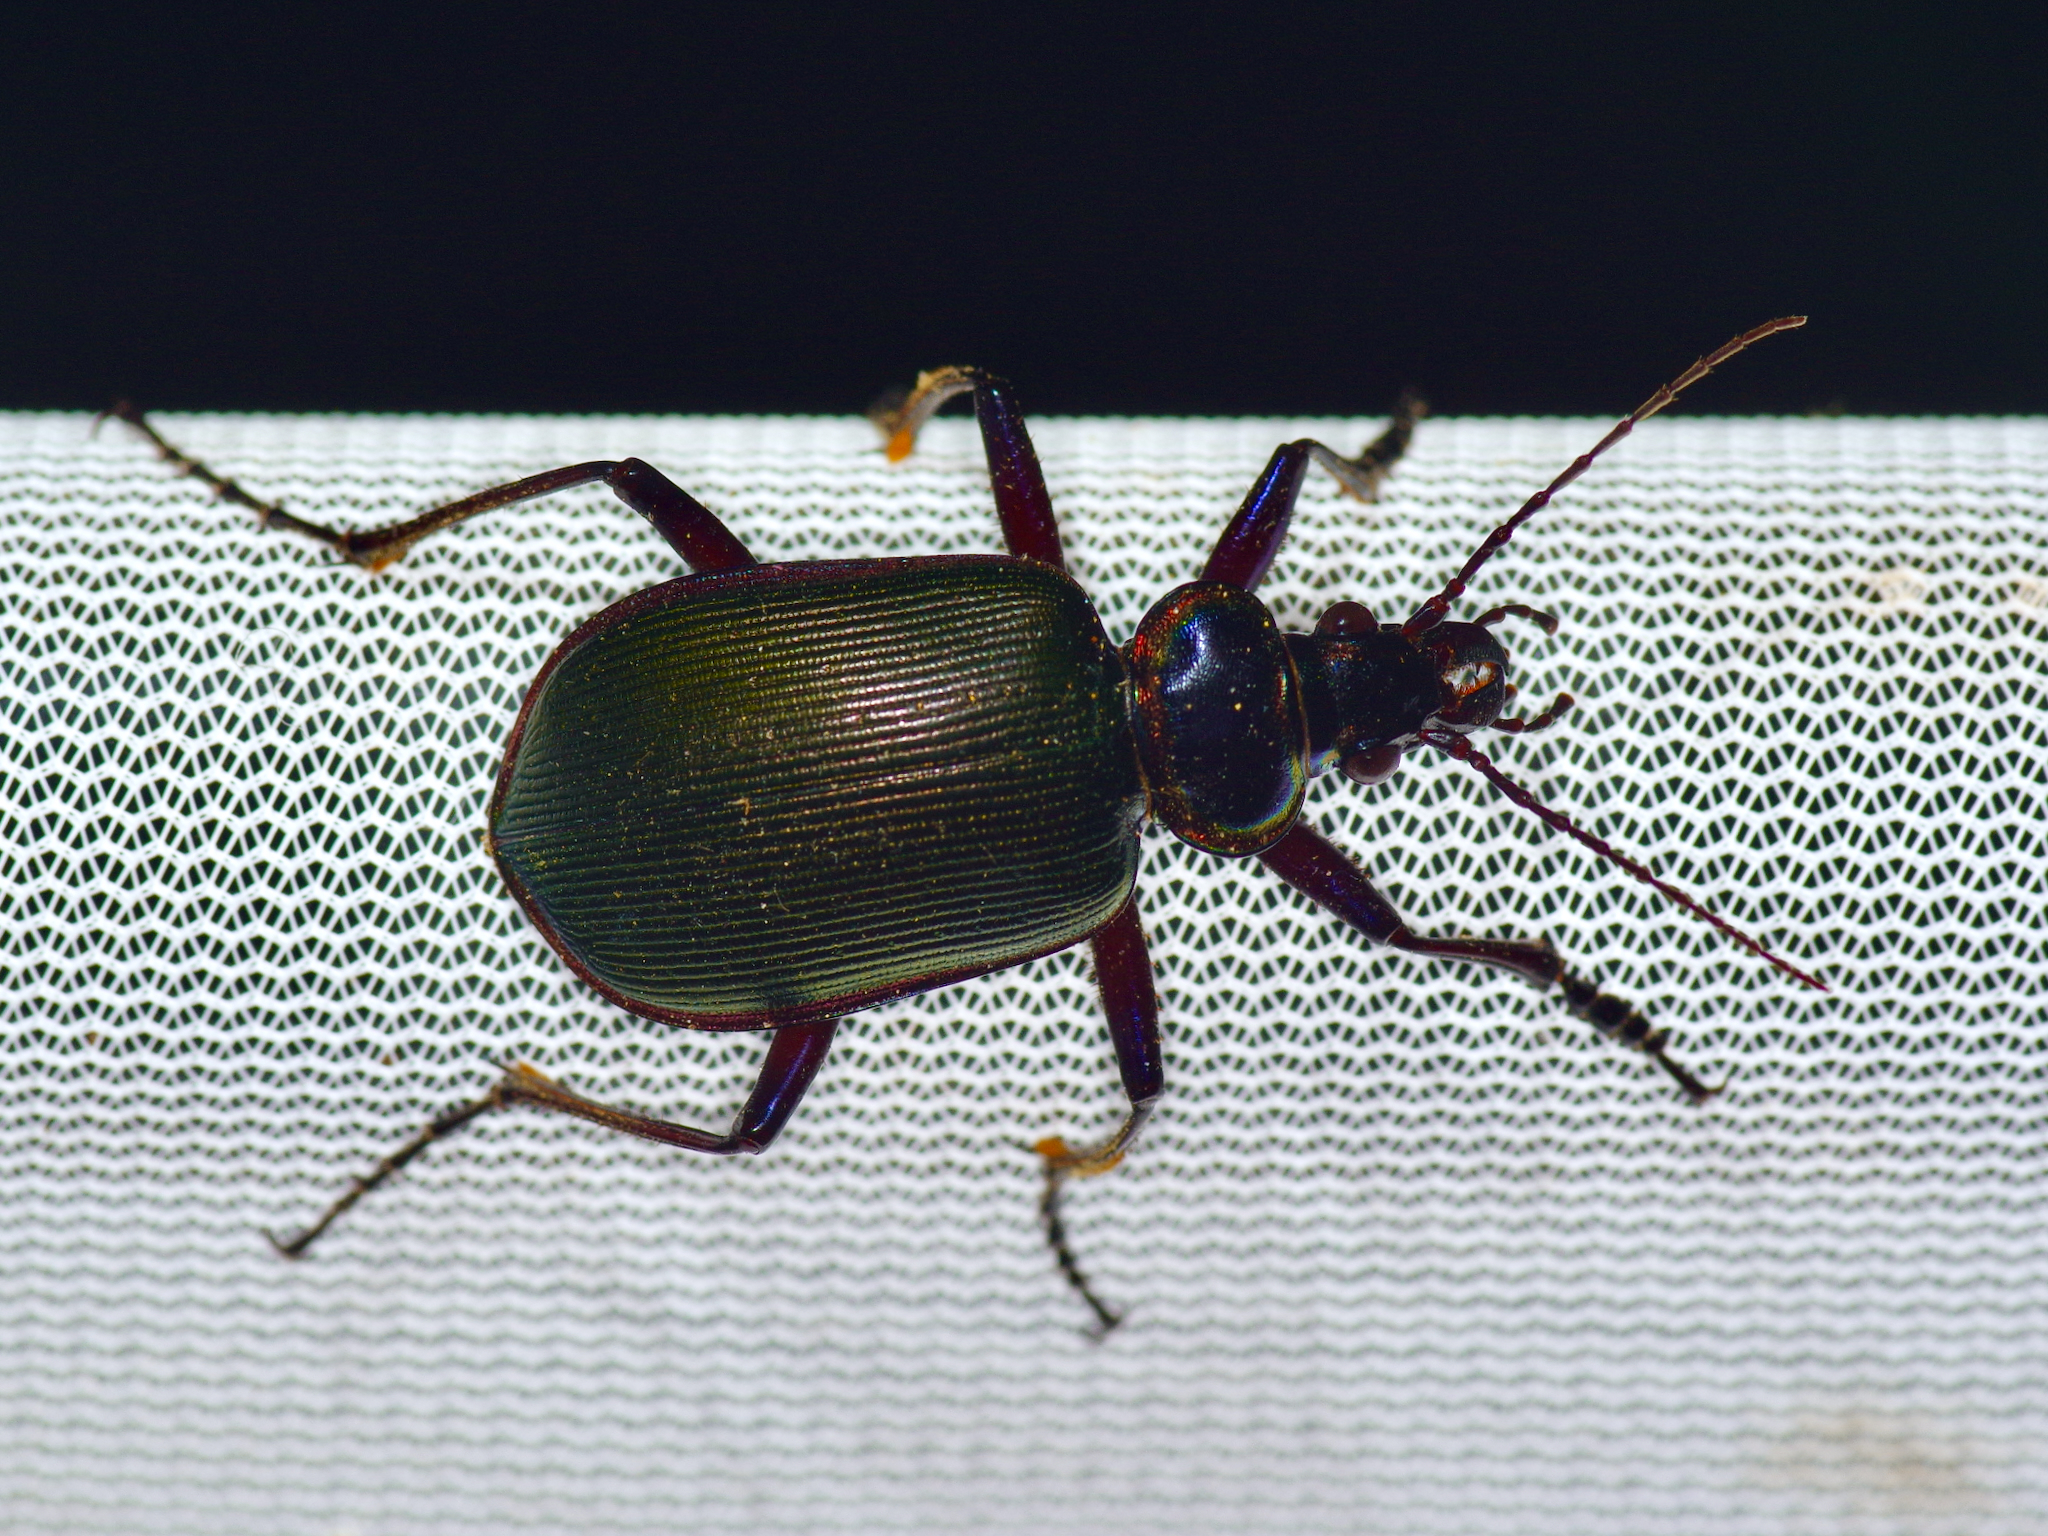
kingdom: Animalia
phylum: Arthropoda
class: Insecta
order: Coleoptera
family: Carabidae
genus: Calosoma
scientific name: Calosoma scrutator
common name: Fiery searcher beetle
